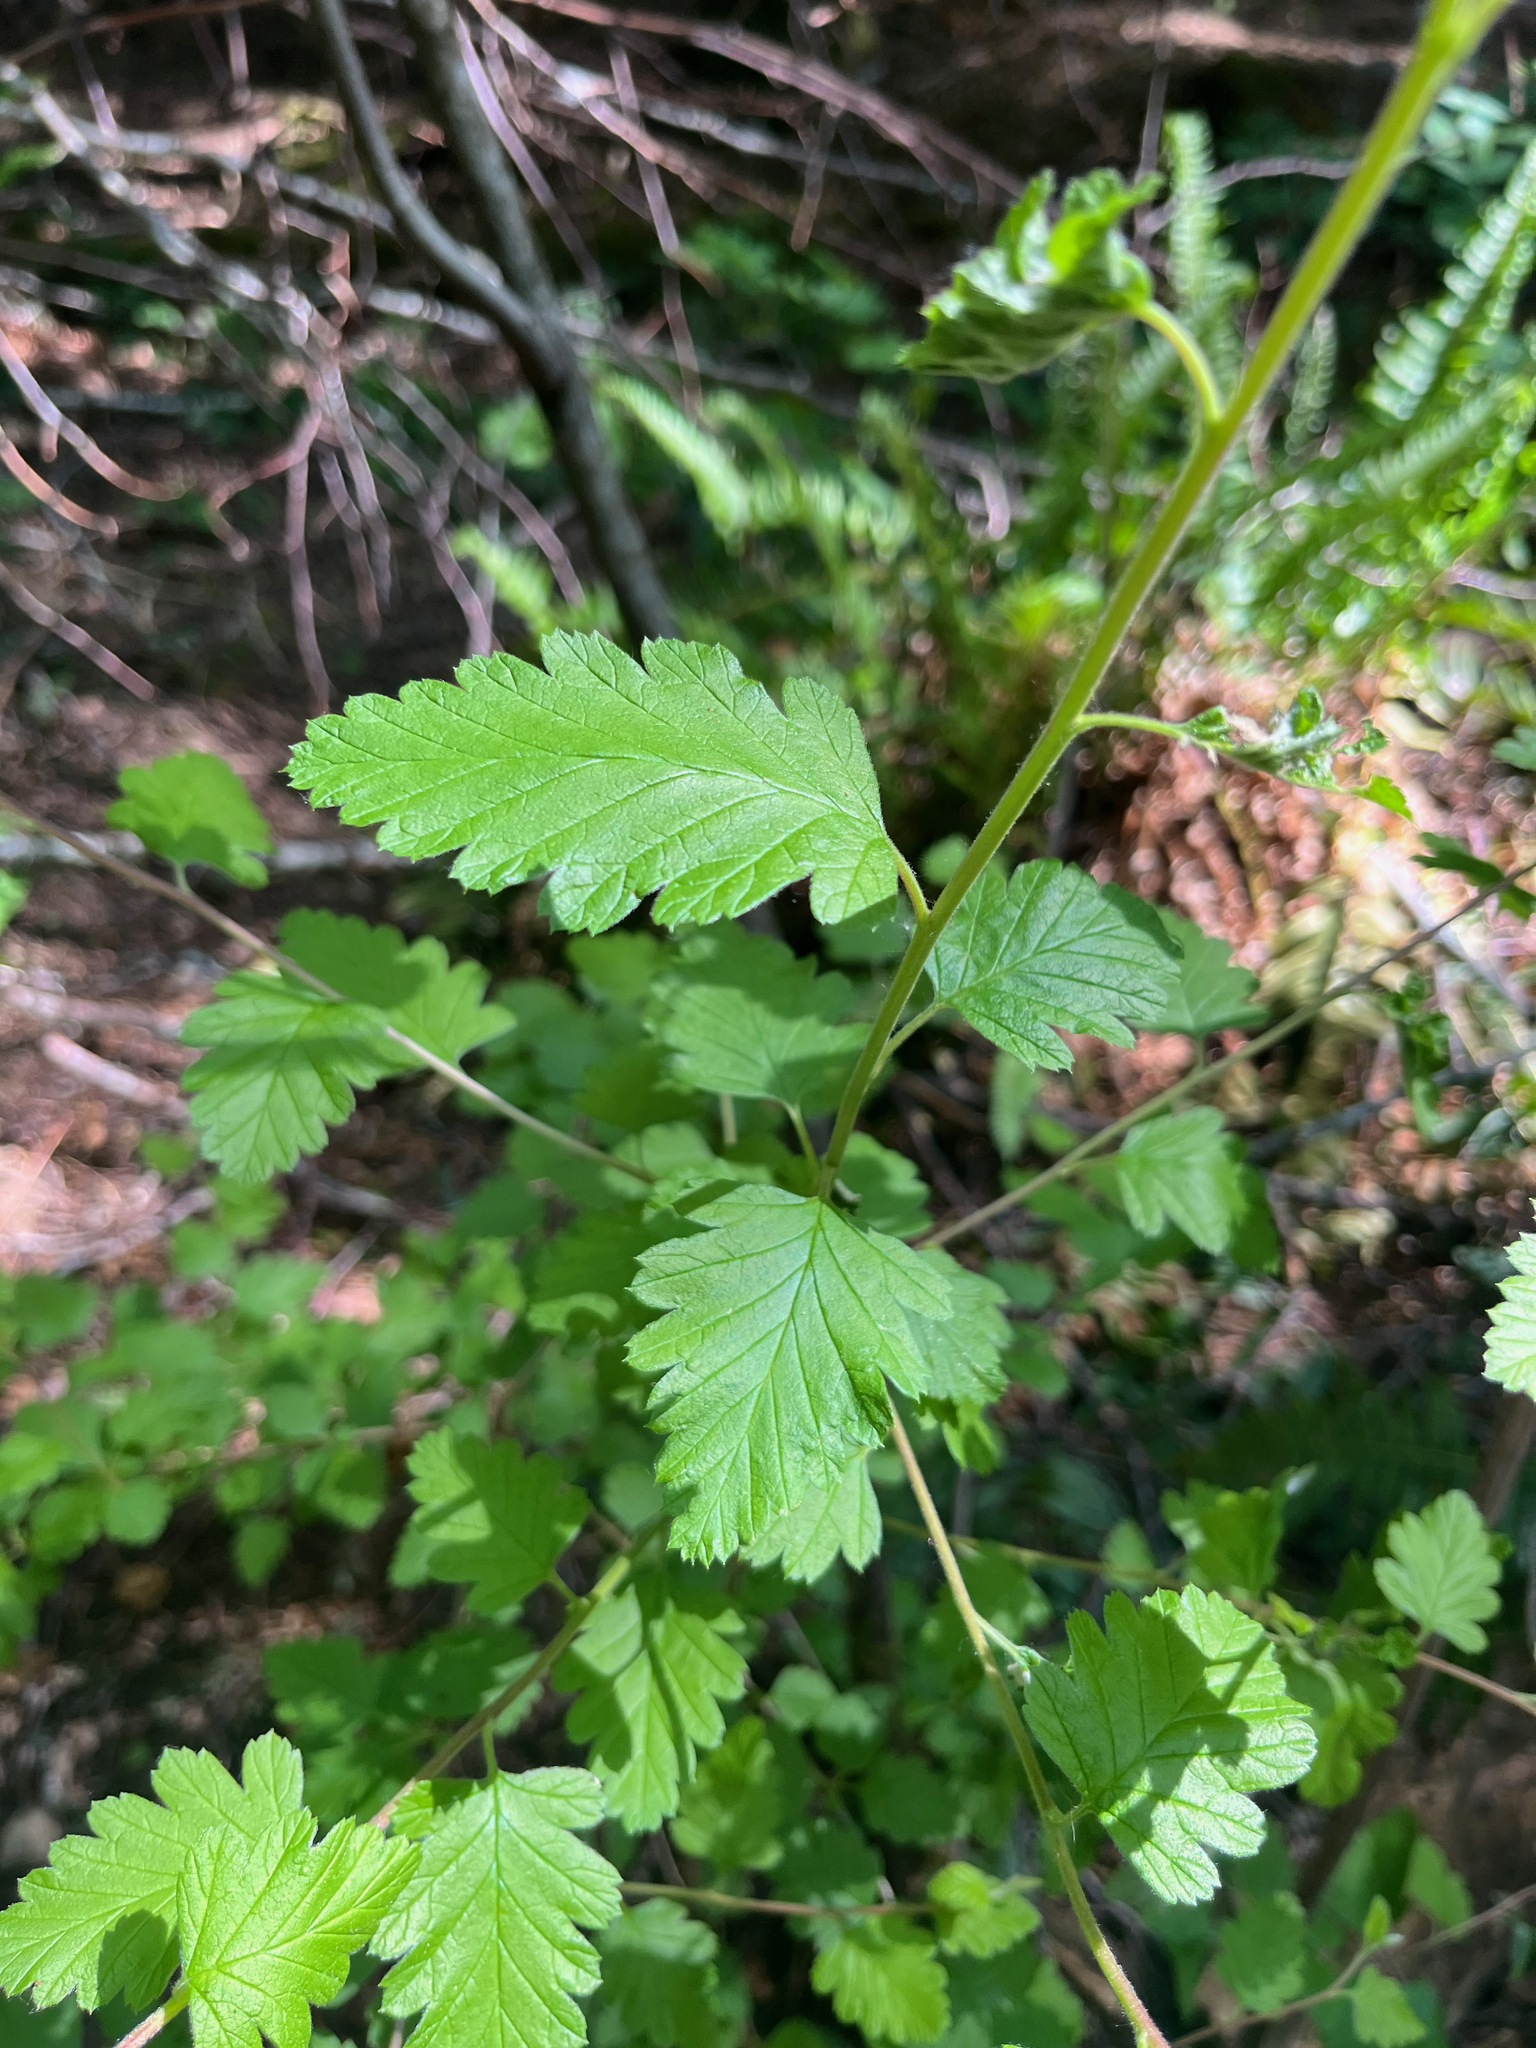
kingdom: Plantae
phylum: Tracheophyta
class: Magnoliopsida
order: Rosales
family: Rosaceae
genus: Holodiscus
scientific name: Holodiscus discolor
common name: Oceanspray
